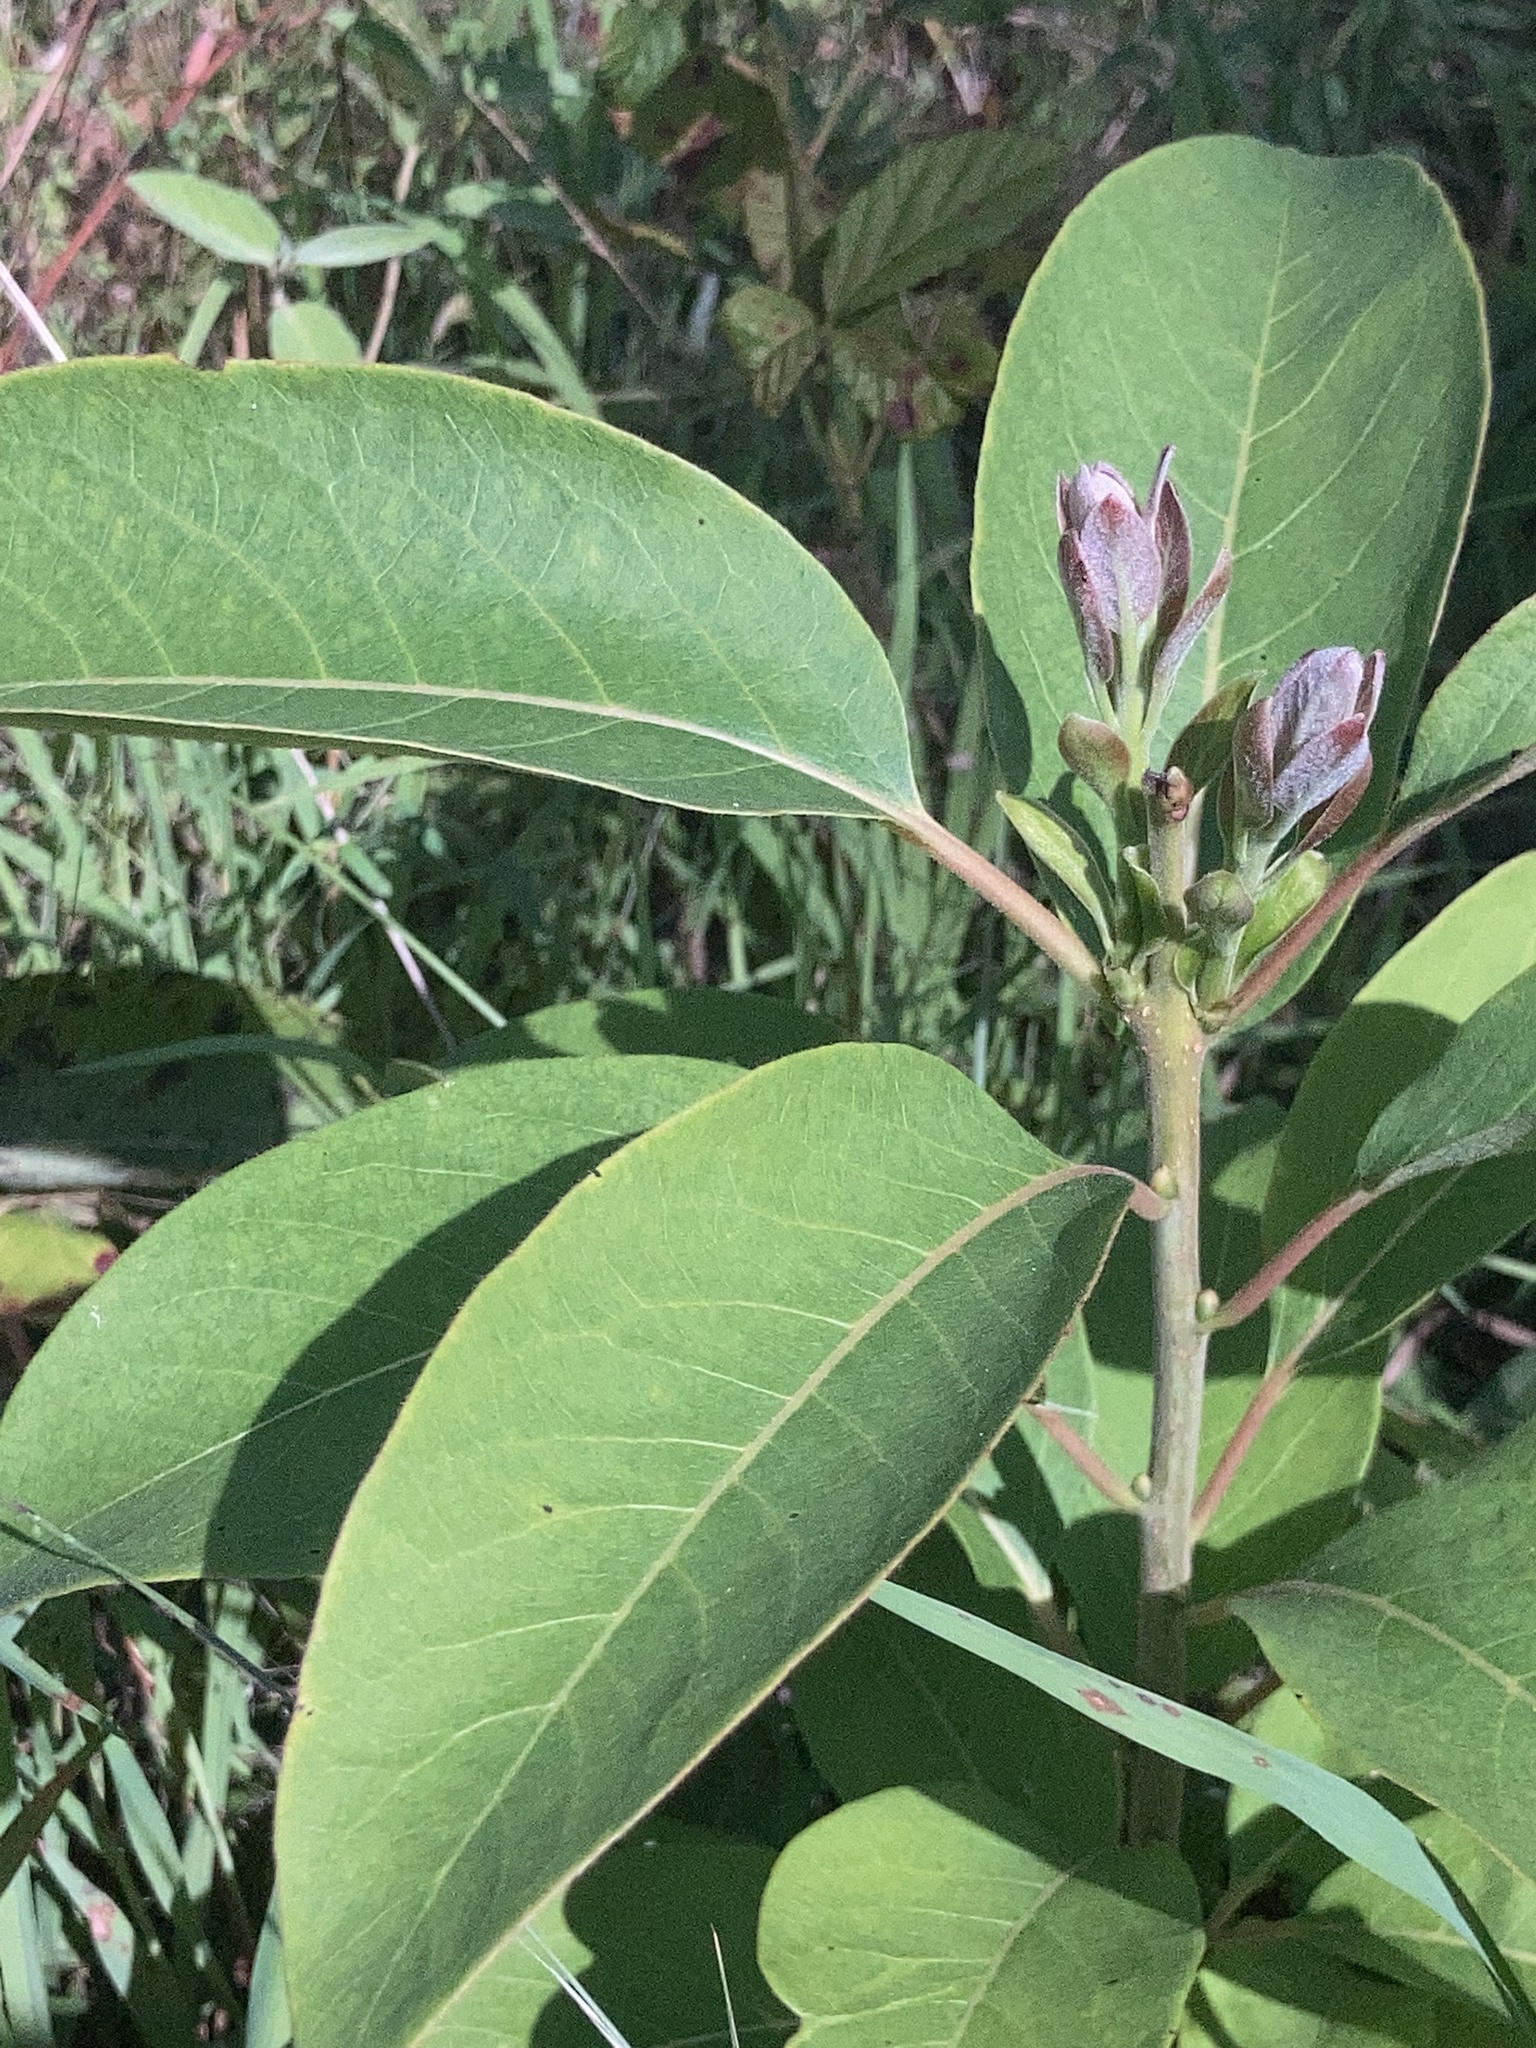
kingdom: Plantae
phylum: Tracheophyta
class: Magnoliopsida
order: Ericales
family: Ebenaceae
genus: Diospyros
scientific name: Diospyros virginiana
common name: Persimmon
